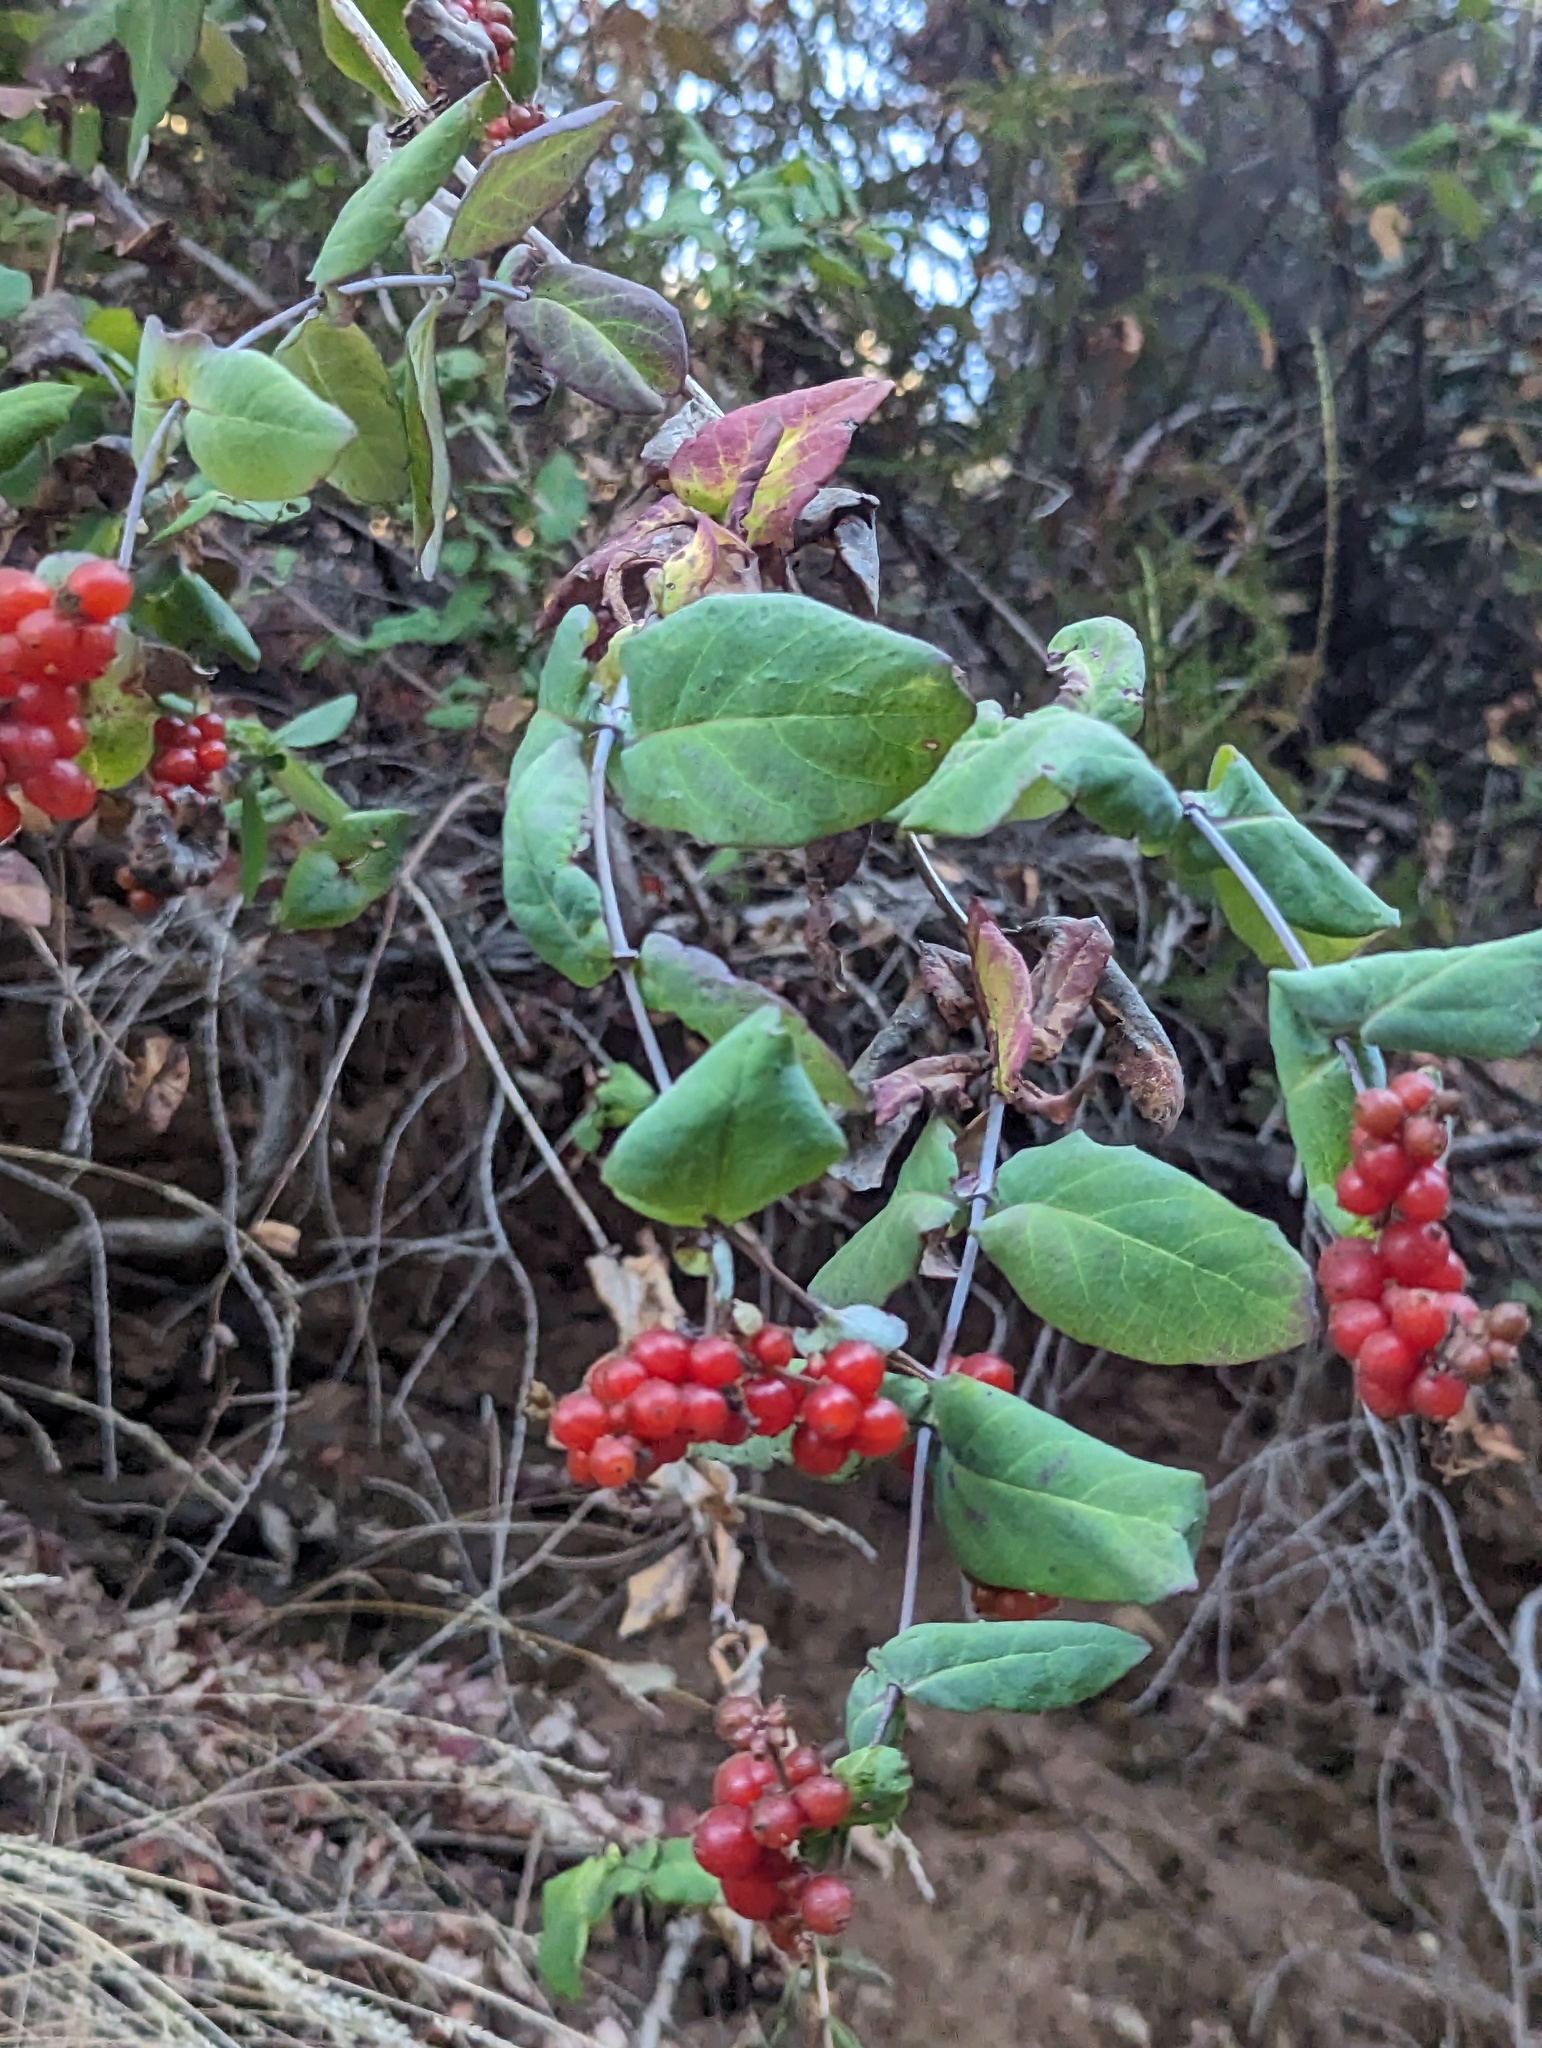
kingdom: Plantae
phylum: Tracheophyta
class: Magnoliopsida
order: Dipsacales
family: Caprifoliaceae
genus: Lonicera
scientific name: Lonicera hispidula
